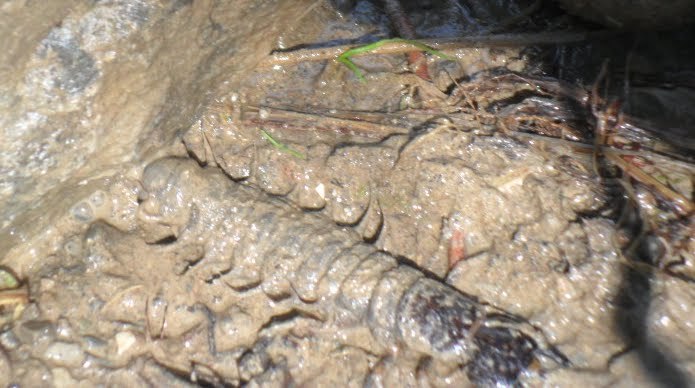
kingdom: Animalia
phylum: Arthropoda
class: Insecta
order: Megaloptera
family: Corydalidae
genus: Corydalus
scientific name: Corydalus cornutus
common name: Dobsonfly
